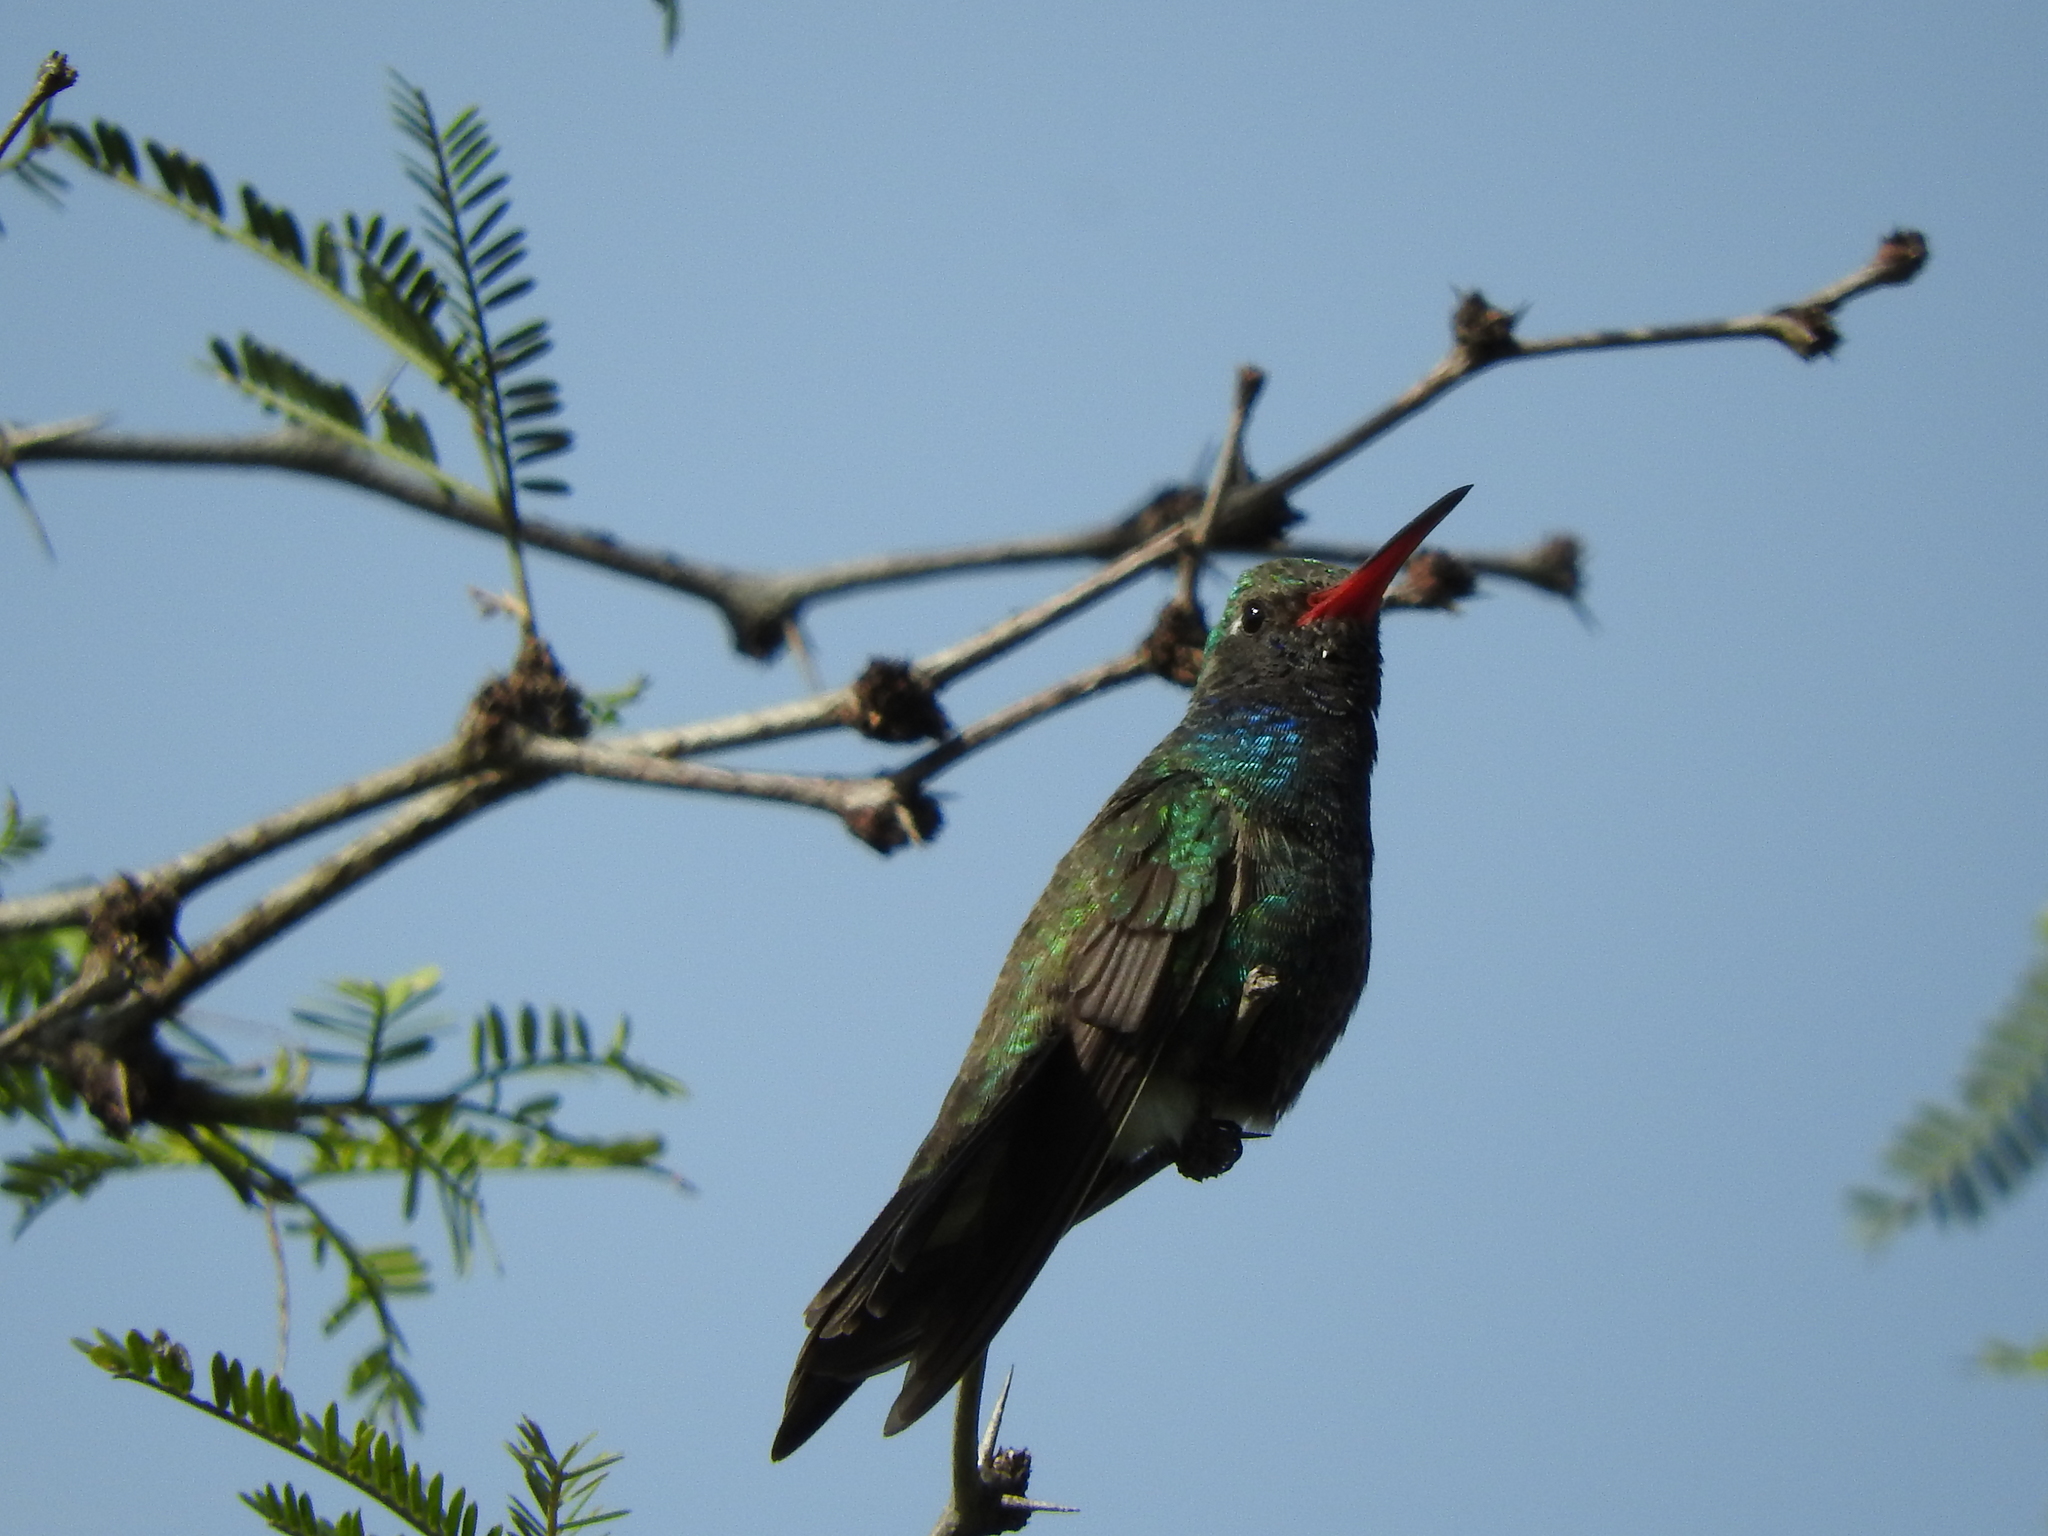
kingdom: Animalia
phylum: Chordata
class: Aves
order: Apodiformes
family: Trochilidae
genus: Cynanthus
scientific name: Cynanthus latirostris
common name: Broad-billed hummingbird
